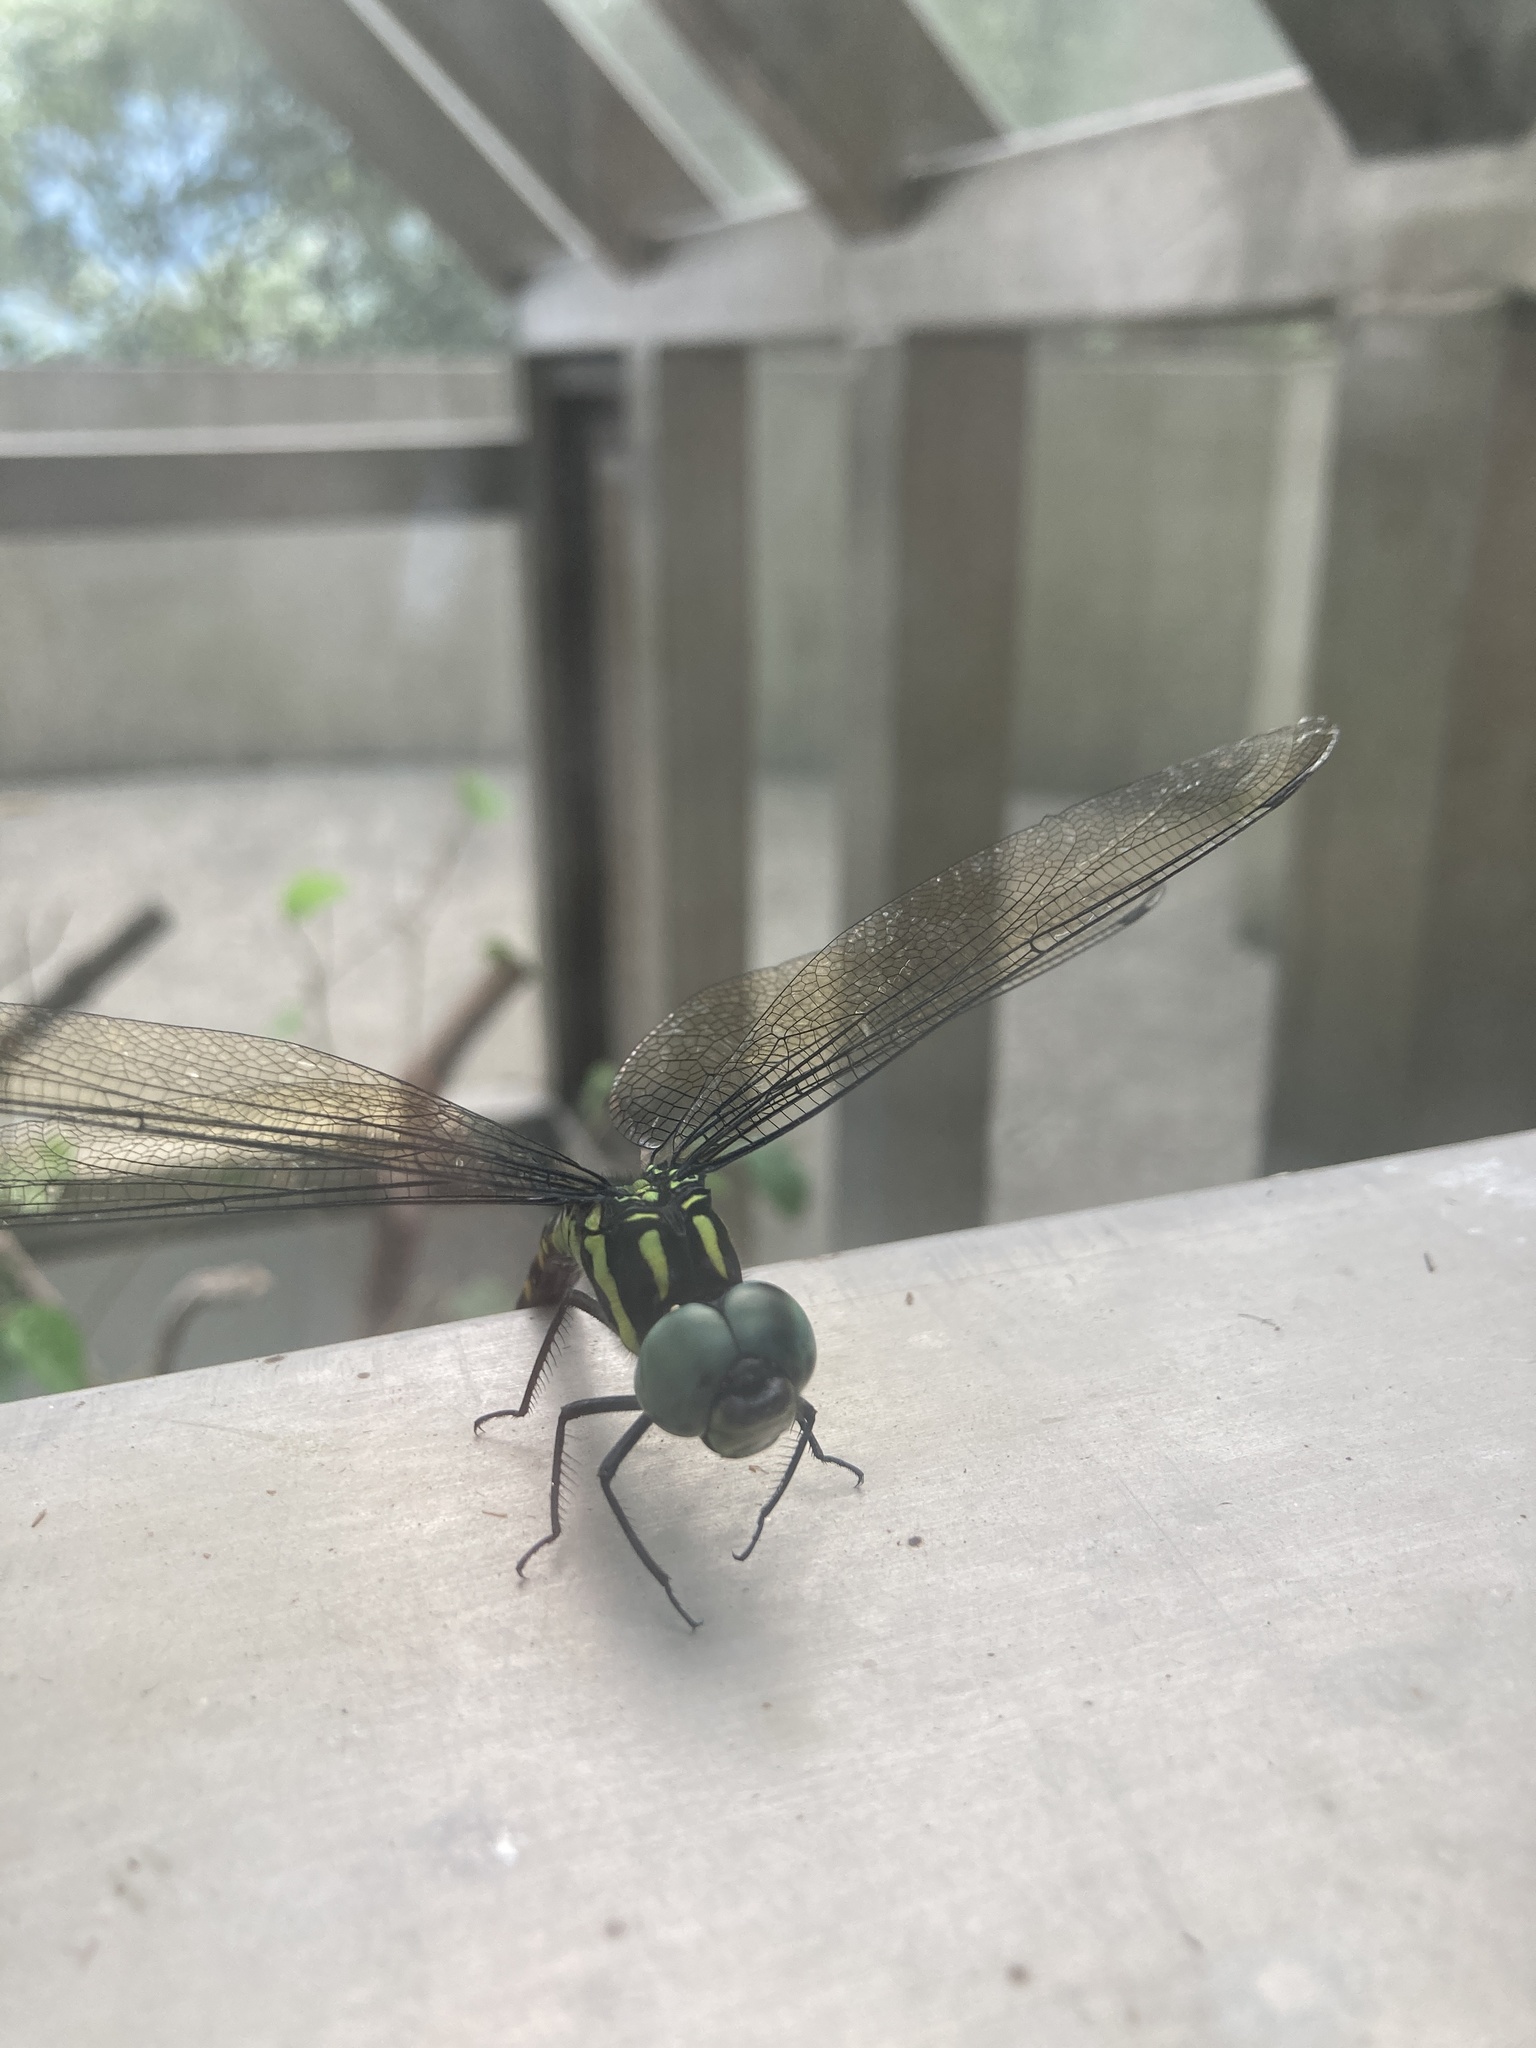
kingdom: Animalia
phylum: Arthropoda
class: Insecta
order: Odonata
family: Aeshnidae
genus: Indaeschna
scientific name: Indaeschna
